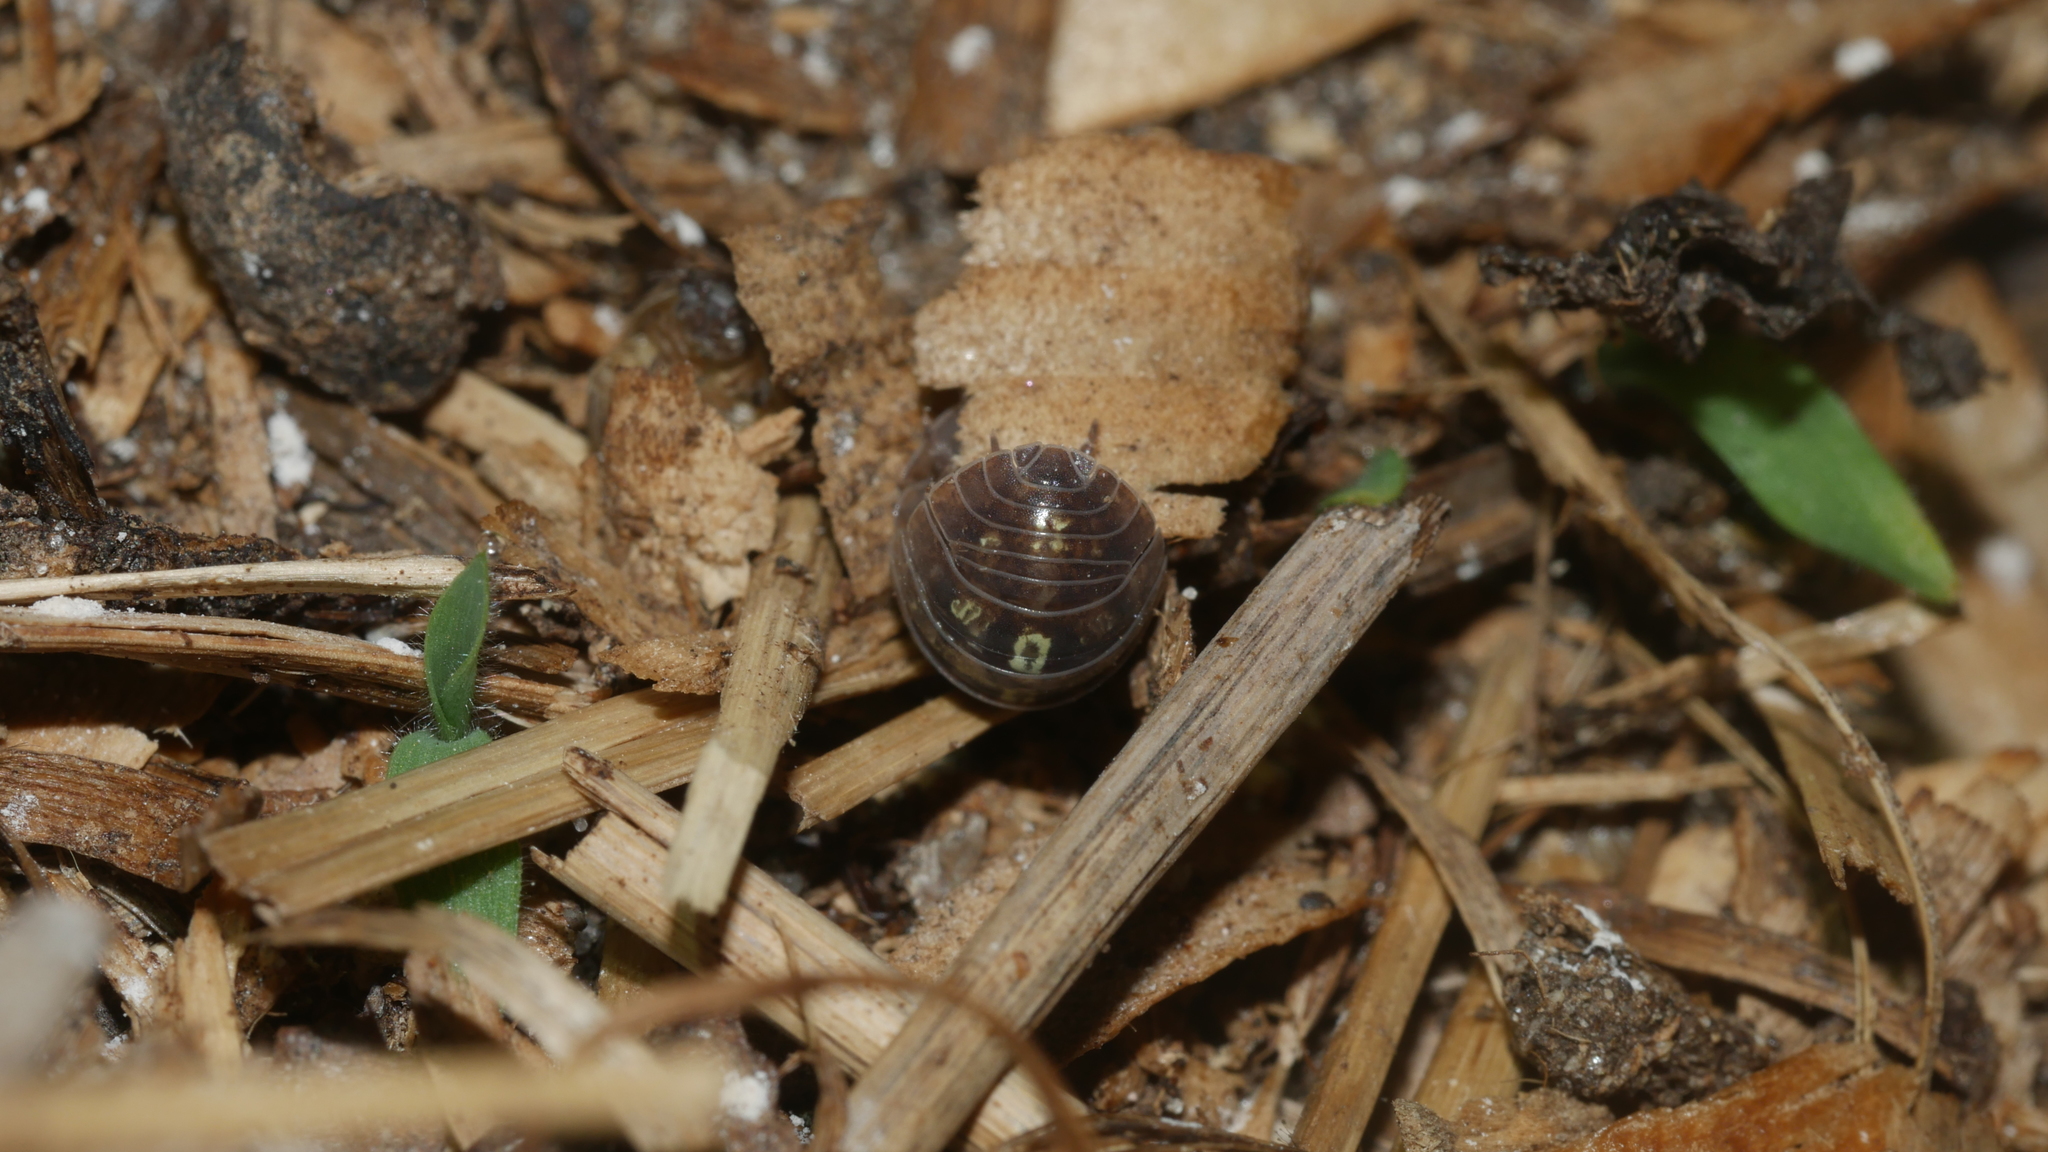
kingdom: Animalia
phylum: Arthropoda
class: Malacostraca
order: Isopoda
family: Armadillidiidae
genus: Armadillidium
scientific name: Armadillidium vulgare
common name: Common pill woodlouse
